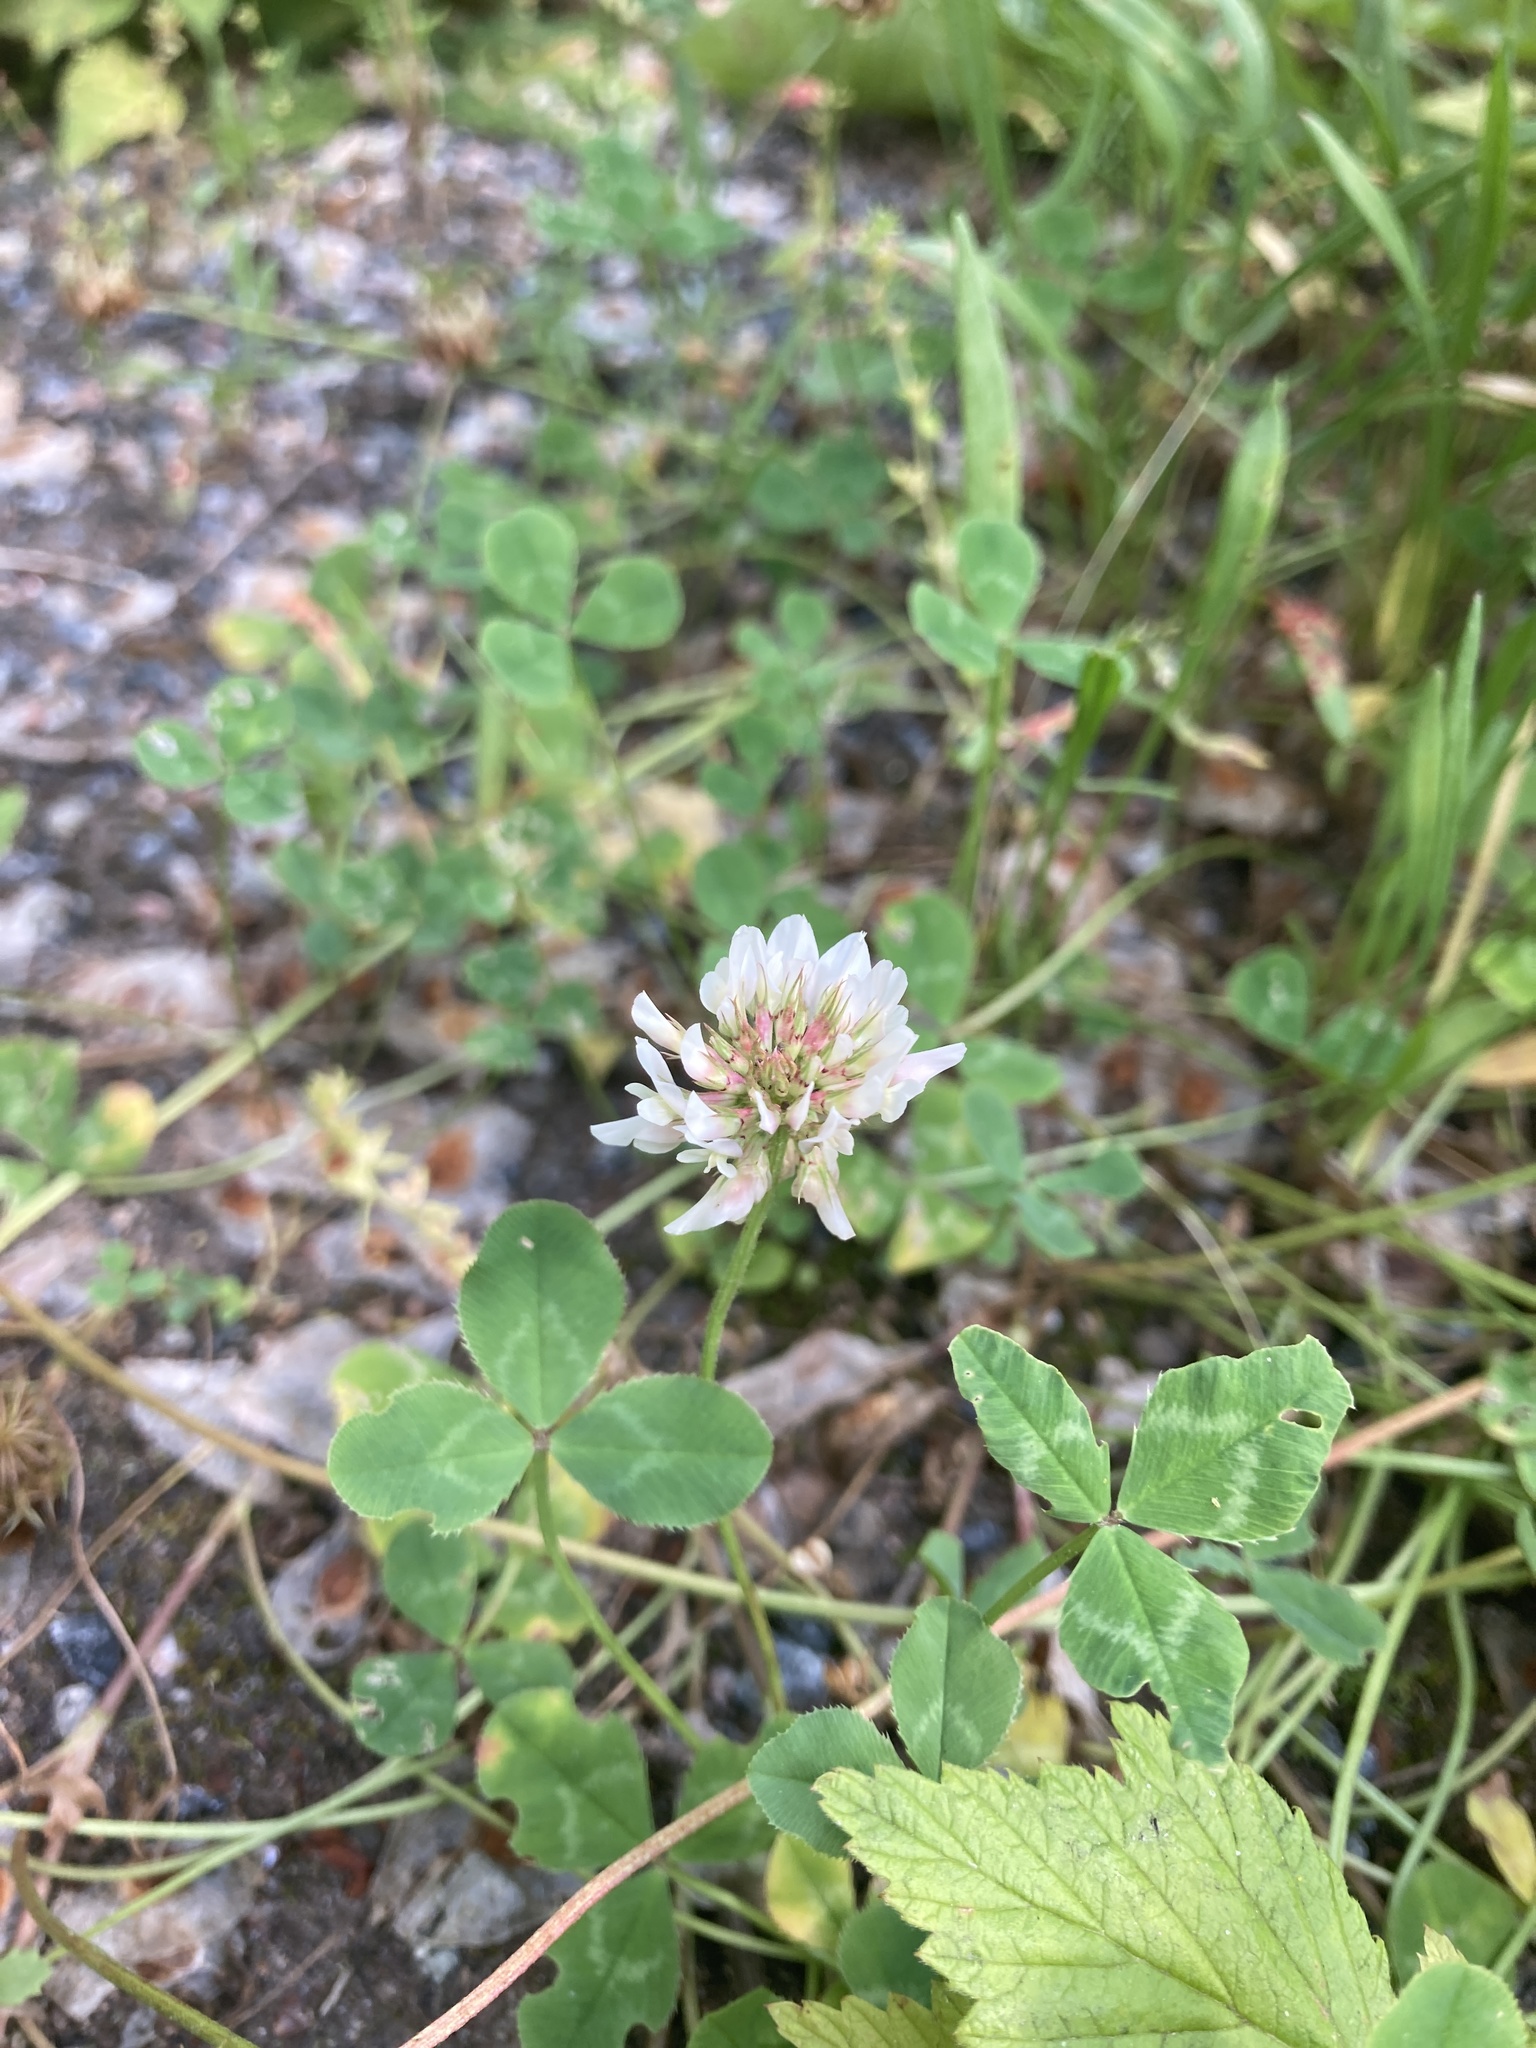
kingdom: Plantae
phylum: Tracheophyta
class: Magnoliopsida
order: Fabales
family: Fabaceae
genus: Trifolium
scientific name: Trifolium repens
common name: White clover
